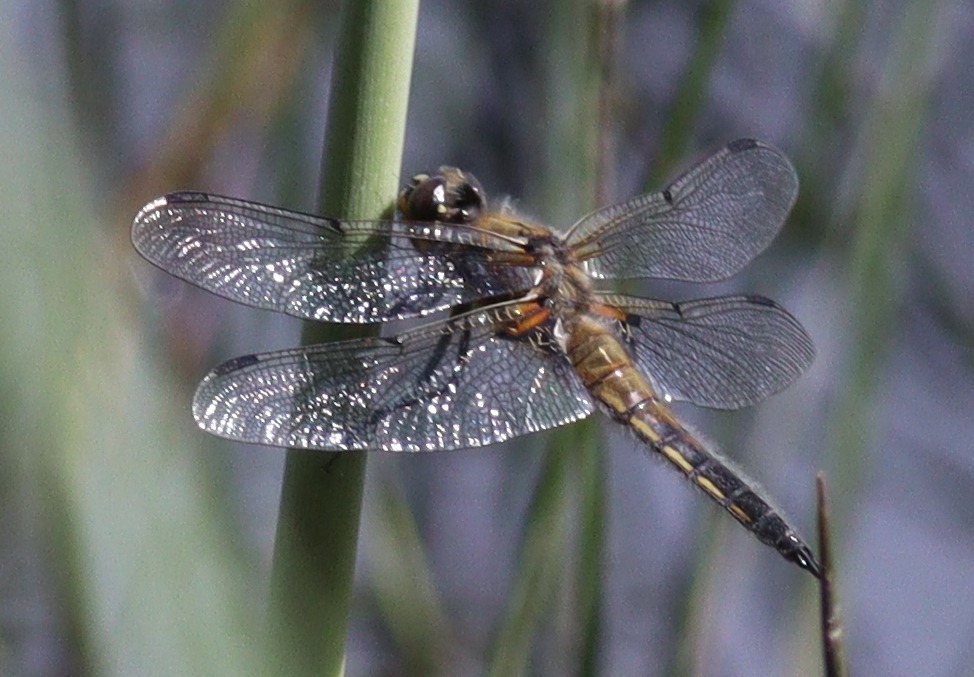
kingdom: Animalia
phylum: Arthropoda
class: Insecta
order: Odonata
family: Libellulidae
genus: Libellula
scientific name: Libellula quadrimaculata
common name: Four-spotted chaser
